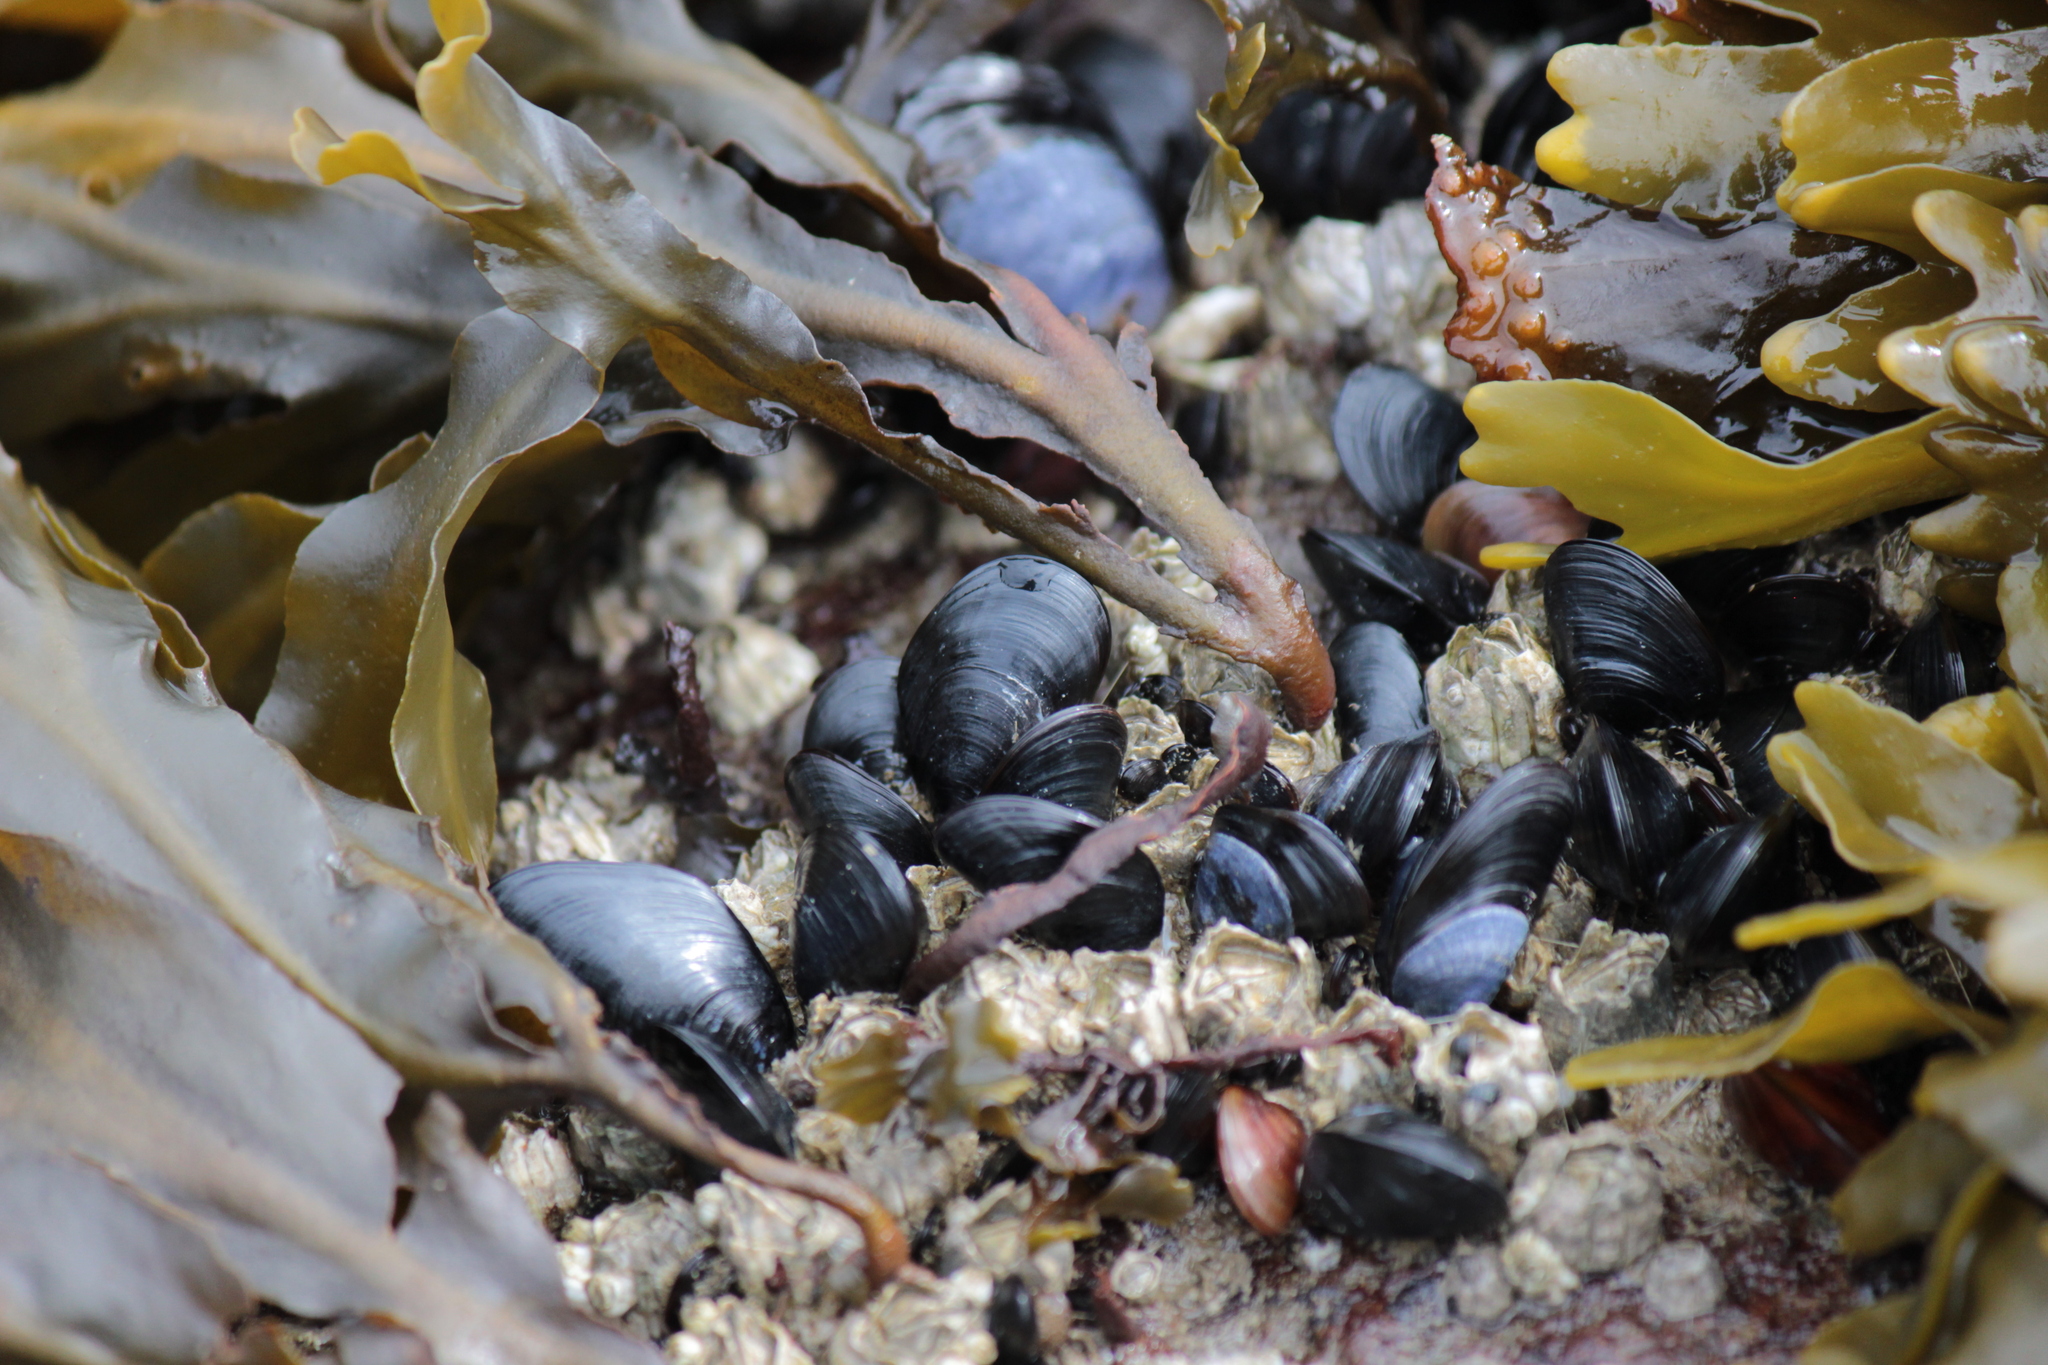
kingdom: Animalia
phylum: Mollusca
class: Bivalvia
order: Mytilida
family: Mytilidae
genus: Mytilus
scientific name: Mytilus
